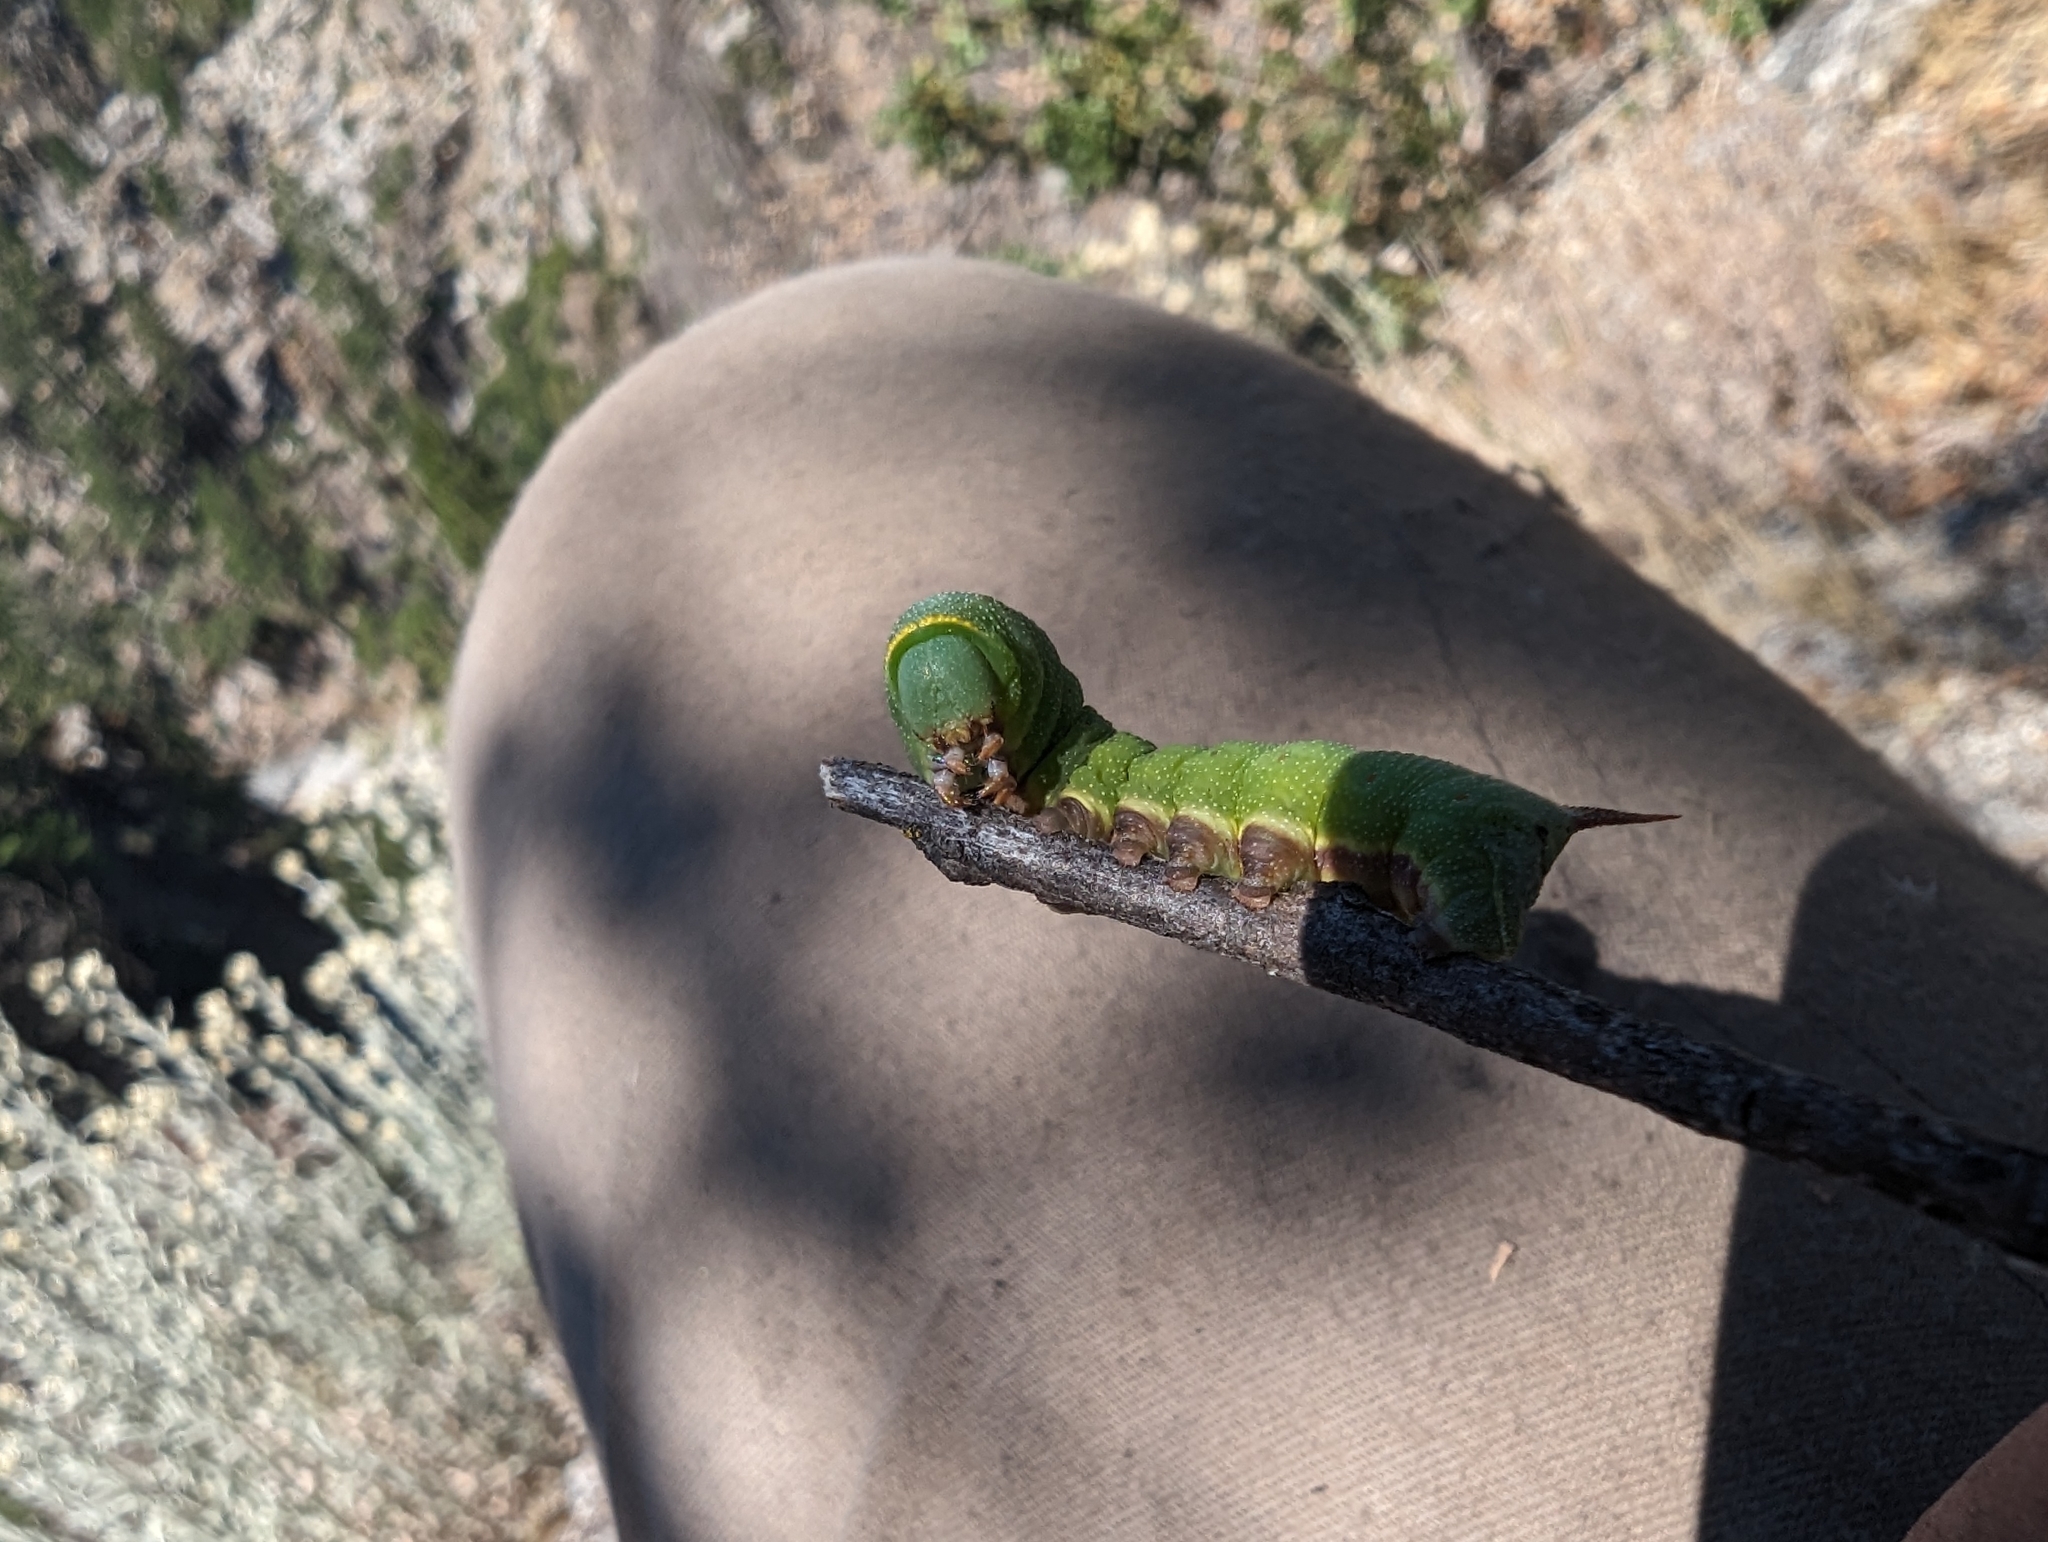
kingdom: Animalia
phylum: Arthropoda
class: Insecta
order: Lepidoptera
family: Sphingidae
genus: Hemaris
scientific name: Hemaris thetis
